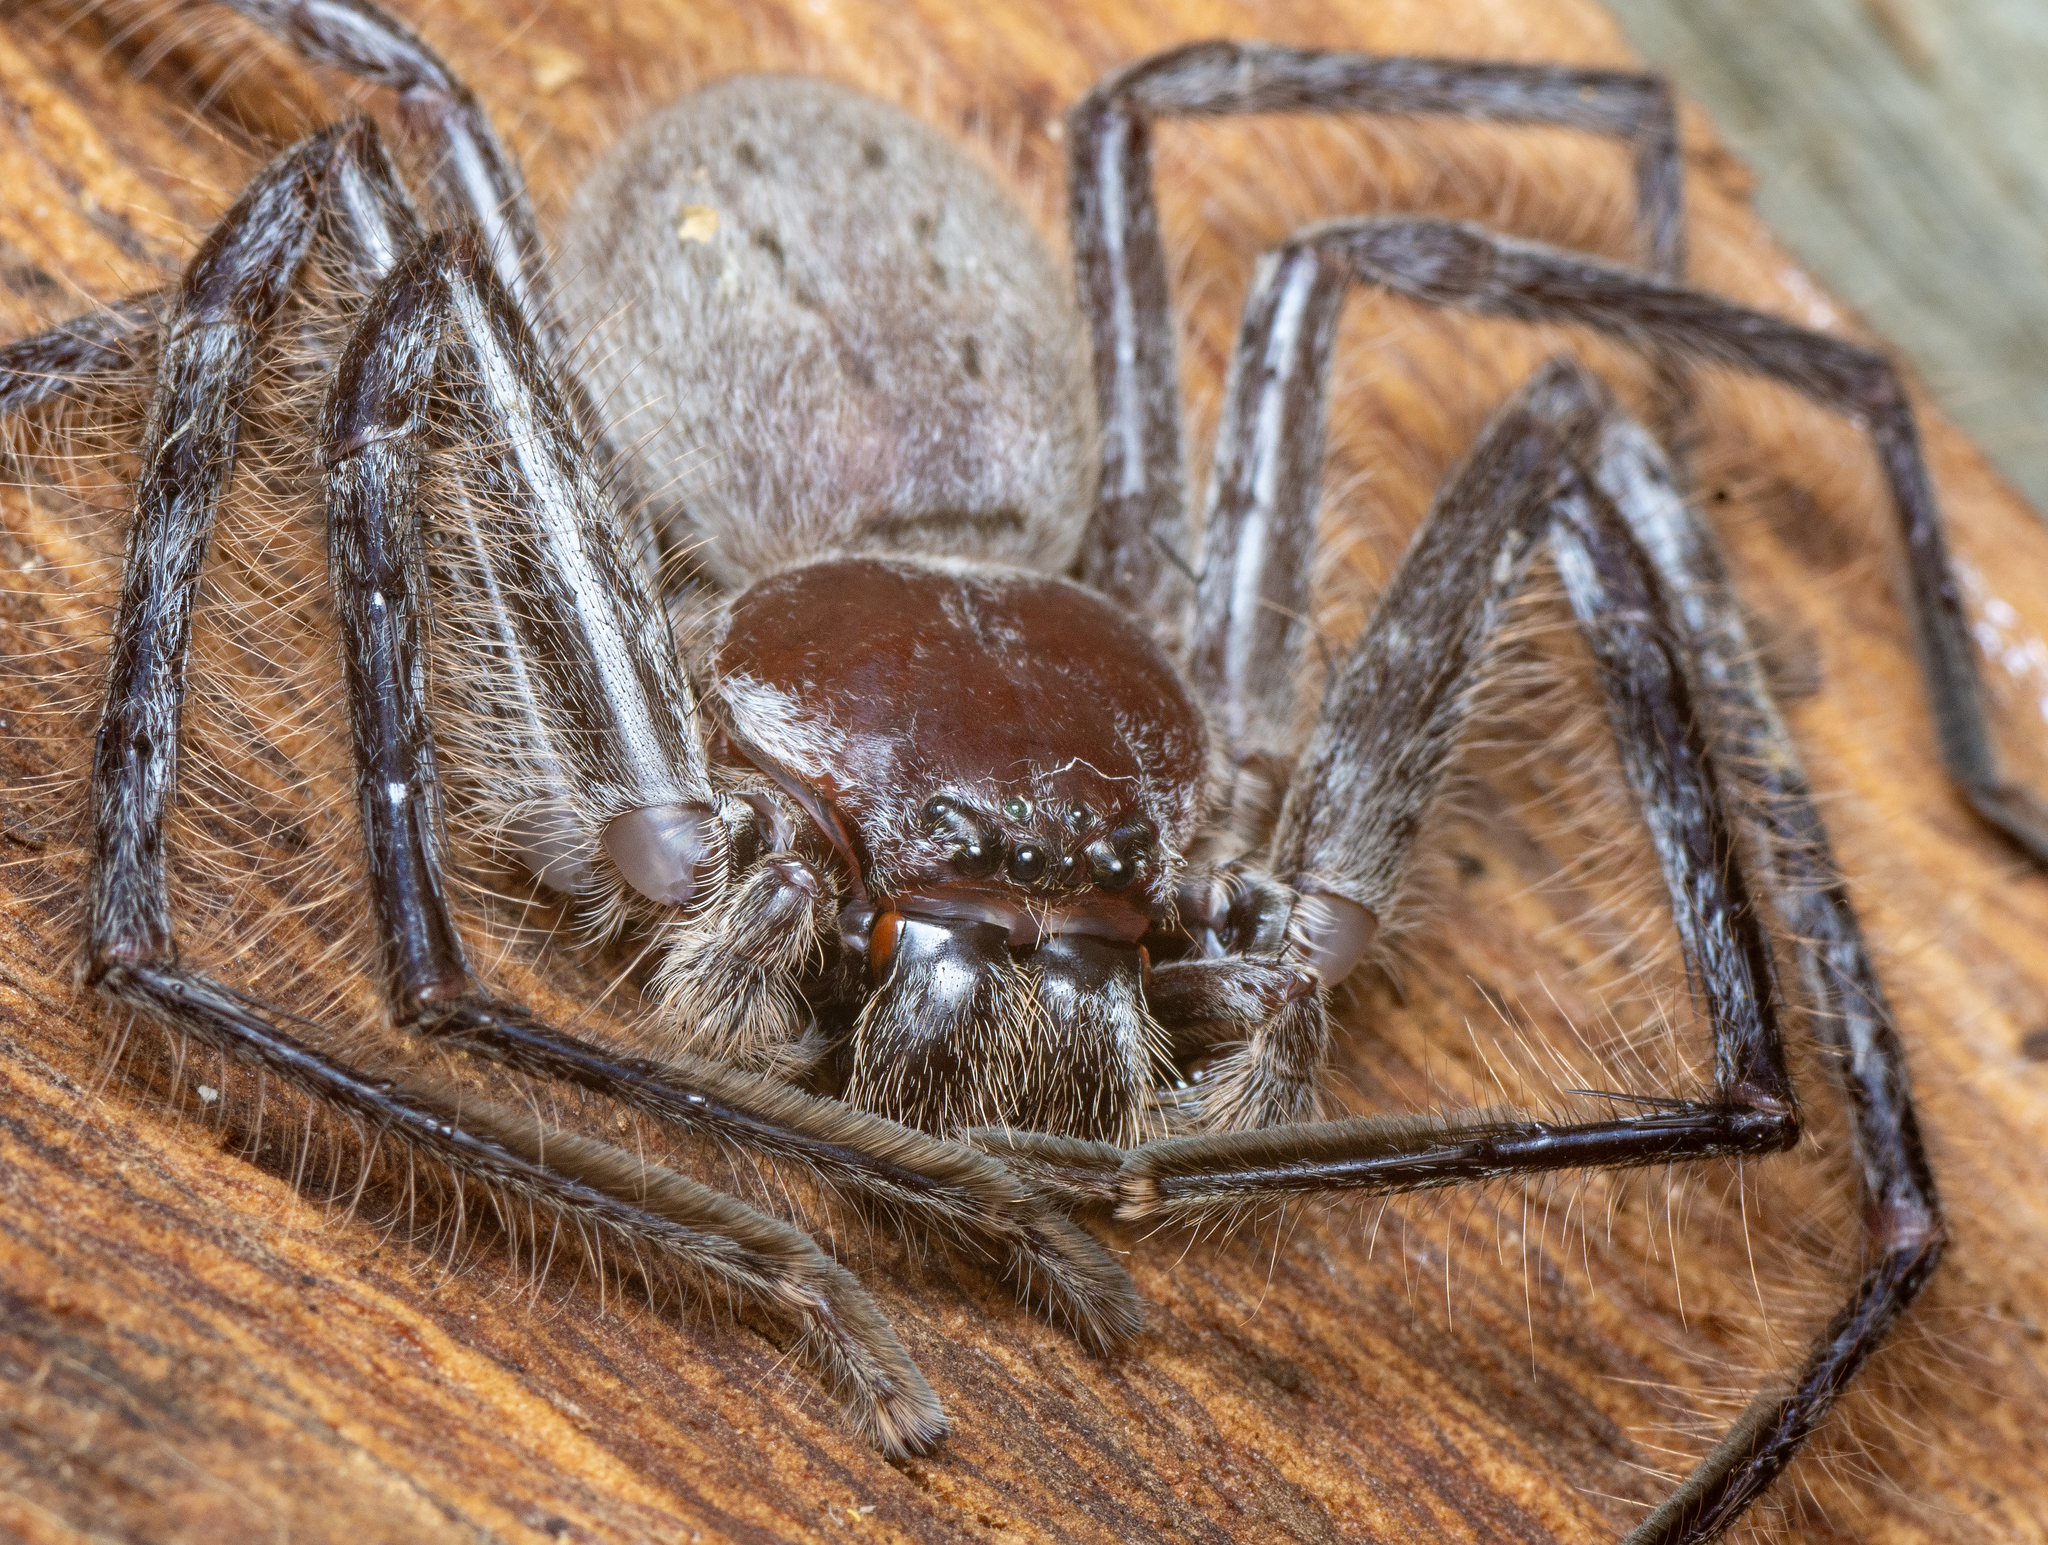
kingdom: Animalia
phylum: Arthropoda
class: Arachnida
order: Araneae
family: Sparassidae
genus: Isopeda
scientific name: Isopeda canberrana
